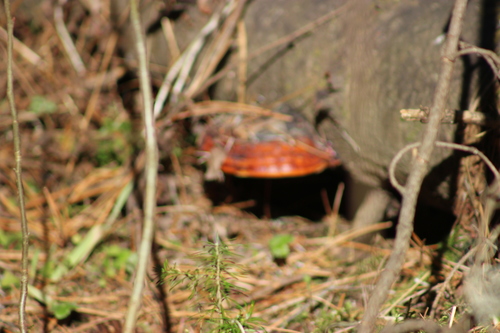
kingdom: Fungi
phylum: Basidiomycota
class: Agaricomycetes
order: Polyporales
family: Fomitopsidaceae
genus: Fomitopsis
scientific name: Fomitopsis pinicola
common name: Red-belted bracket
